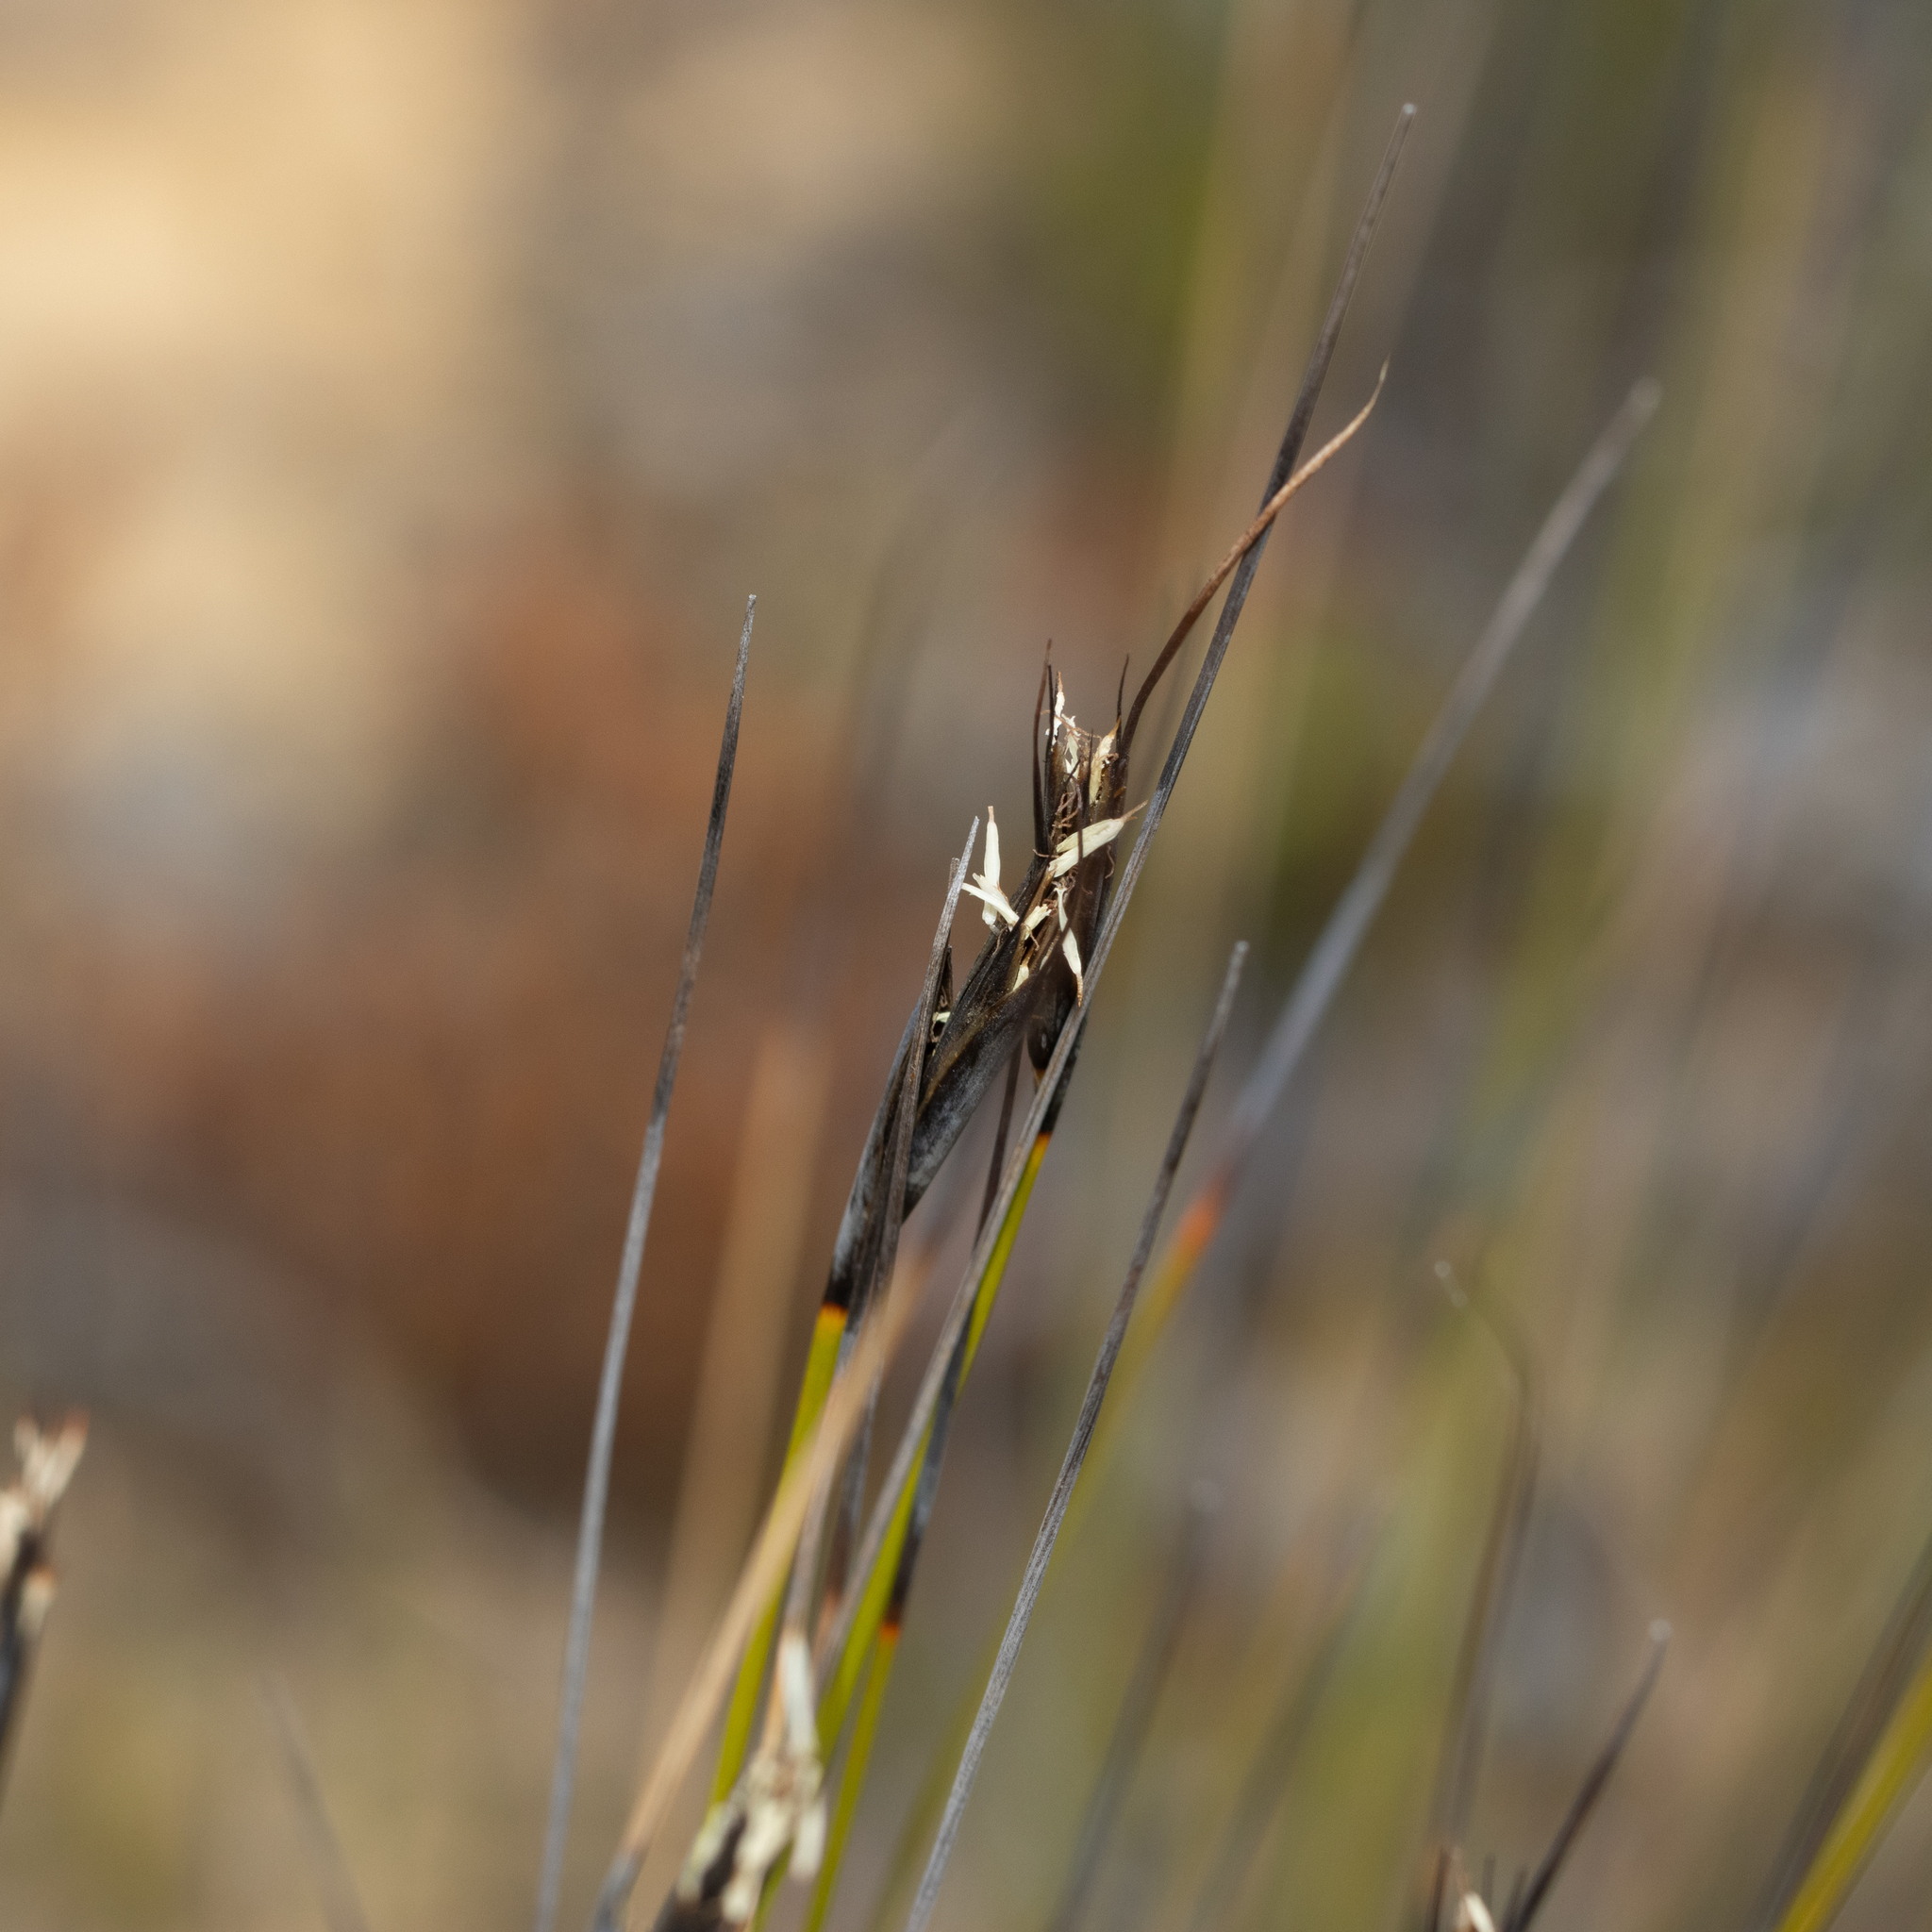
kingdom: Plantae
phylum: Tracheophyta
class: Liliopsida
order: Poales
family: Cyperaceae
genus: Lepidosperma
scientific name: Lepidosperma carphoides
